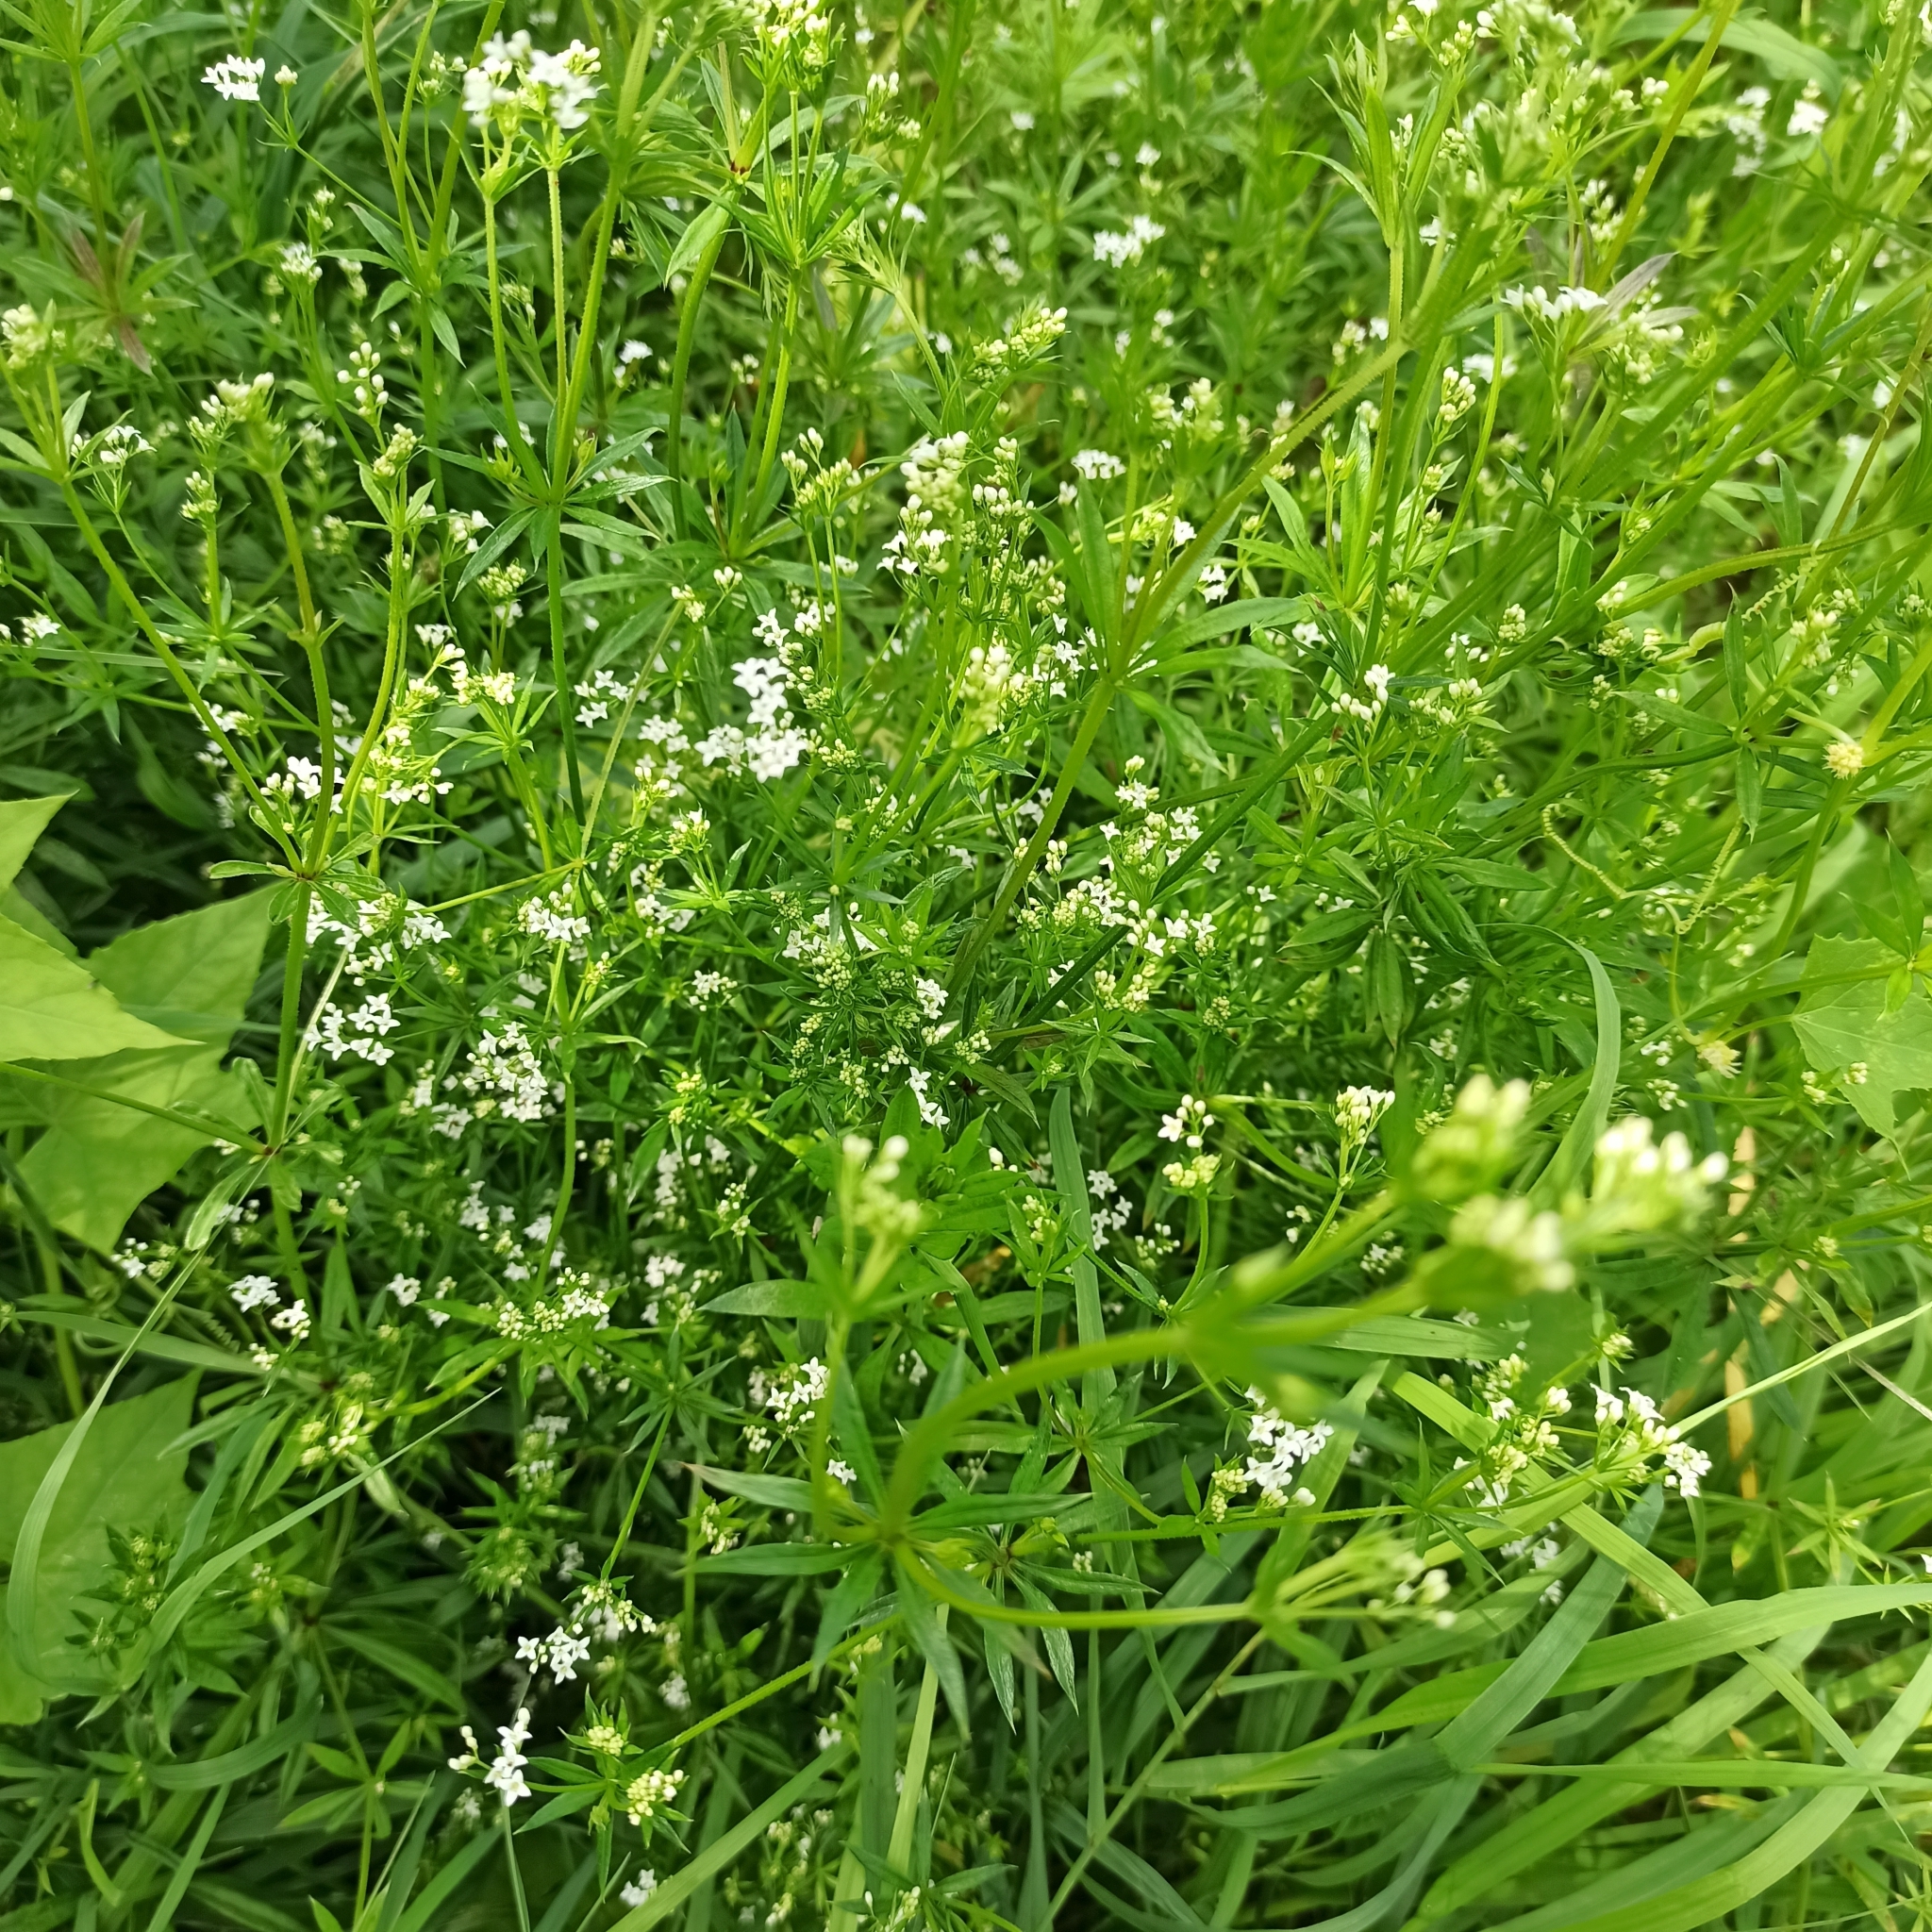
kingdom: Plantae
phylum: Tracheophyta
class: Magnoliopsida
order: Gentianales
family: Rubiaceae
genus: Galium
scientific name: Galium rivale
